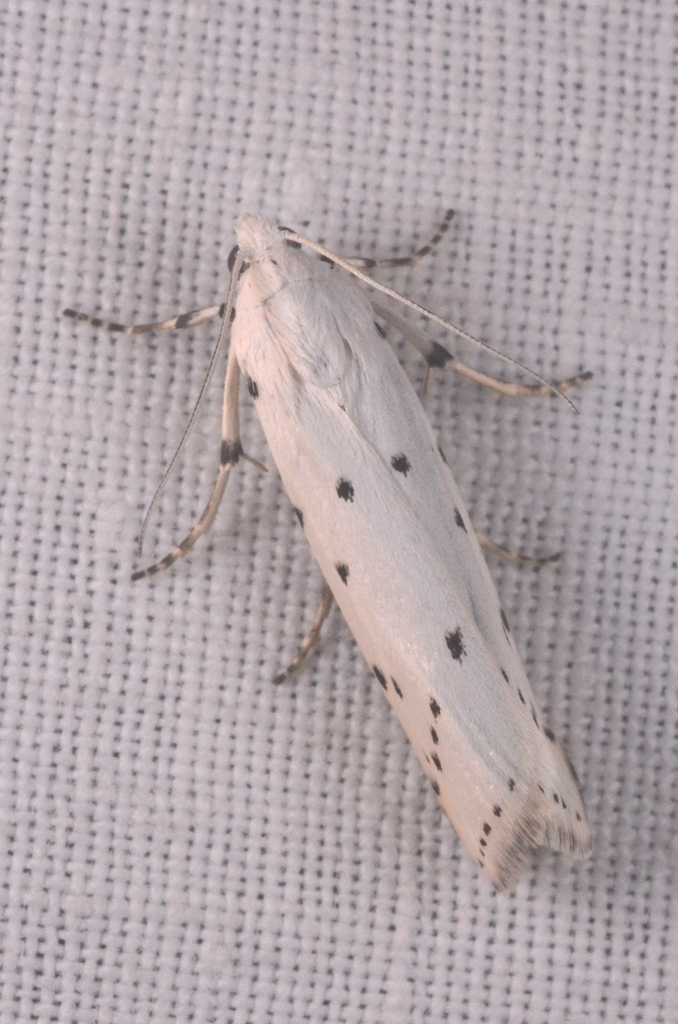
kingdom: Animalia
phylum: Arthropoda
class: Insecta
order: Lepidoptera
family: Pyralidae
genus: Myelois
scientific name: Myelois circumvoluta
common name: Thistle ermine
